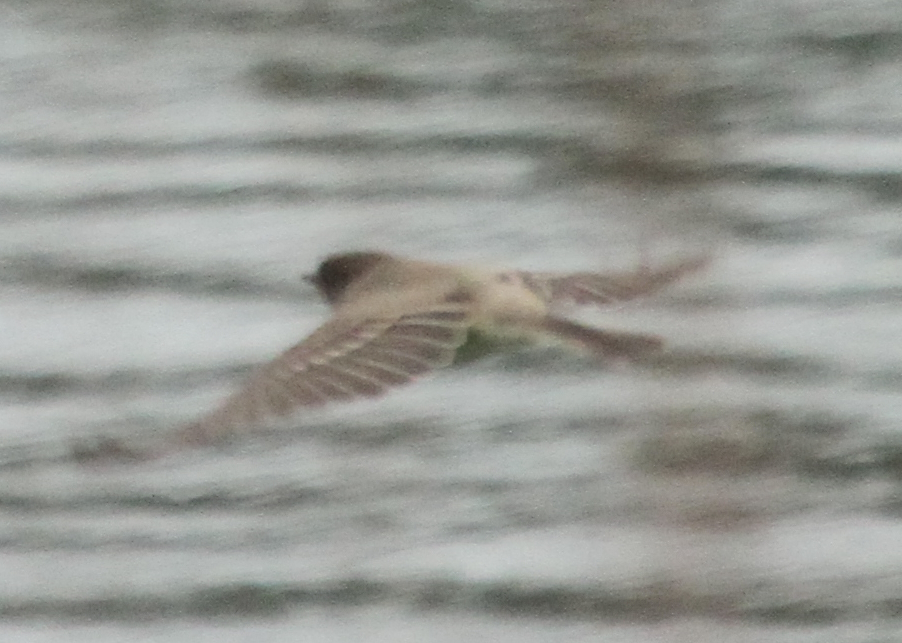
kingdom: Animalia
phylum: Chordata
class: Aves
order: Passeriformes
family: Tyrannidae
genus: Sayornis
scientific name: Sayornis phoebe
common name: Eastern phoebe
